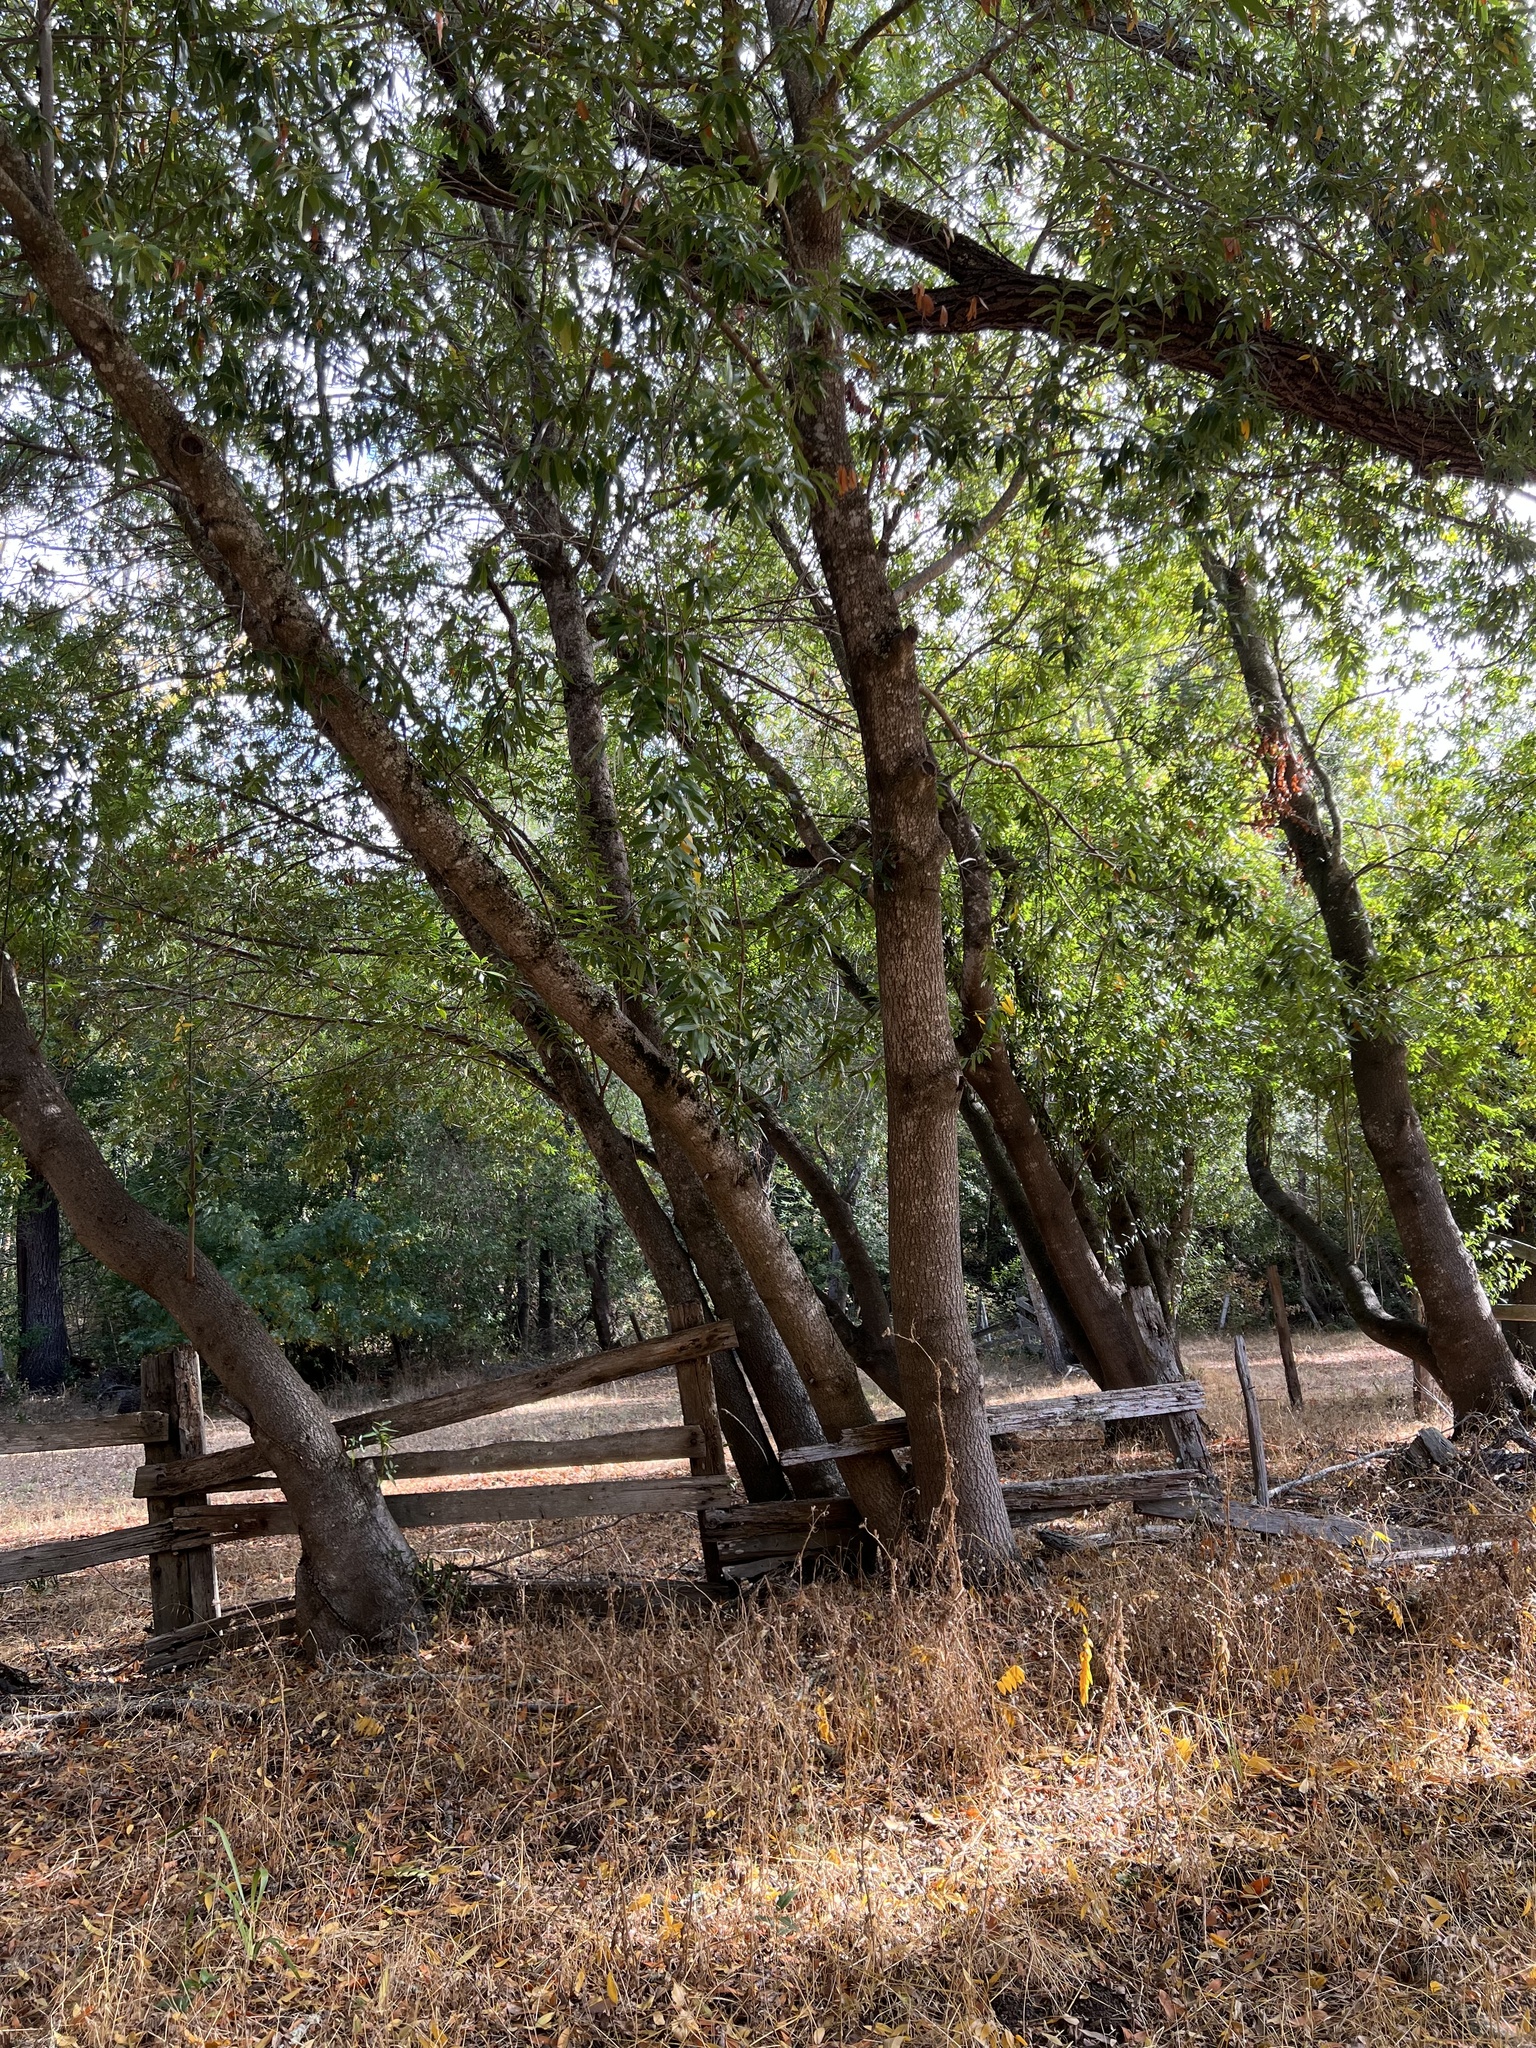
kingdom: Plantae
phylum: Tracheophyta
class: Magnoliopsida
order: Laurales
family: Lauraceae
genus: Umbellularia
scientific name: Umbellularia californica
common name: California bay
